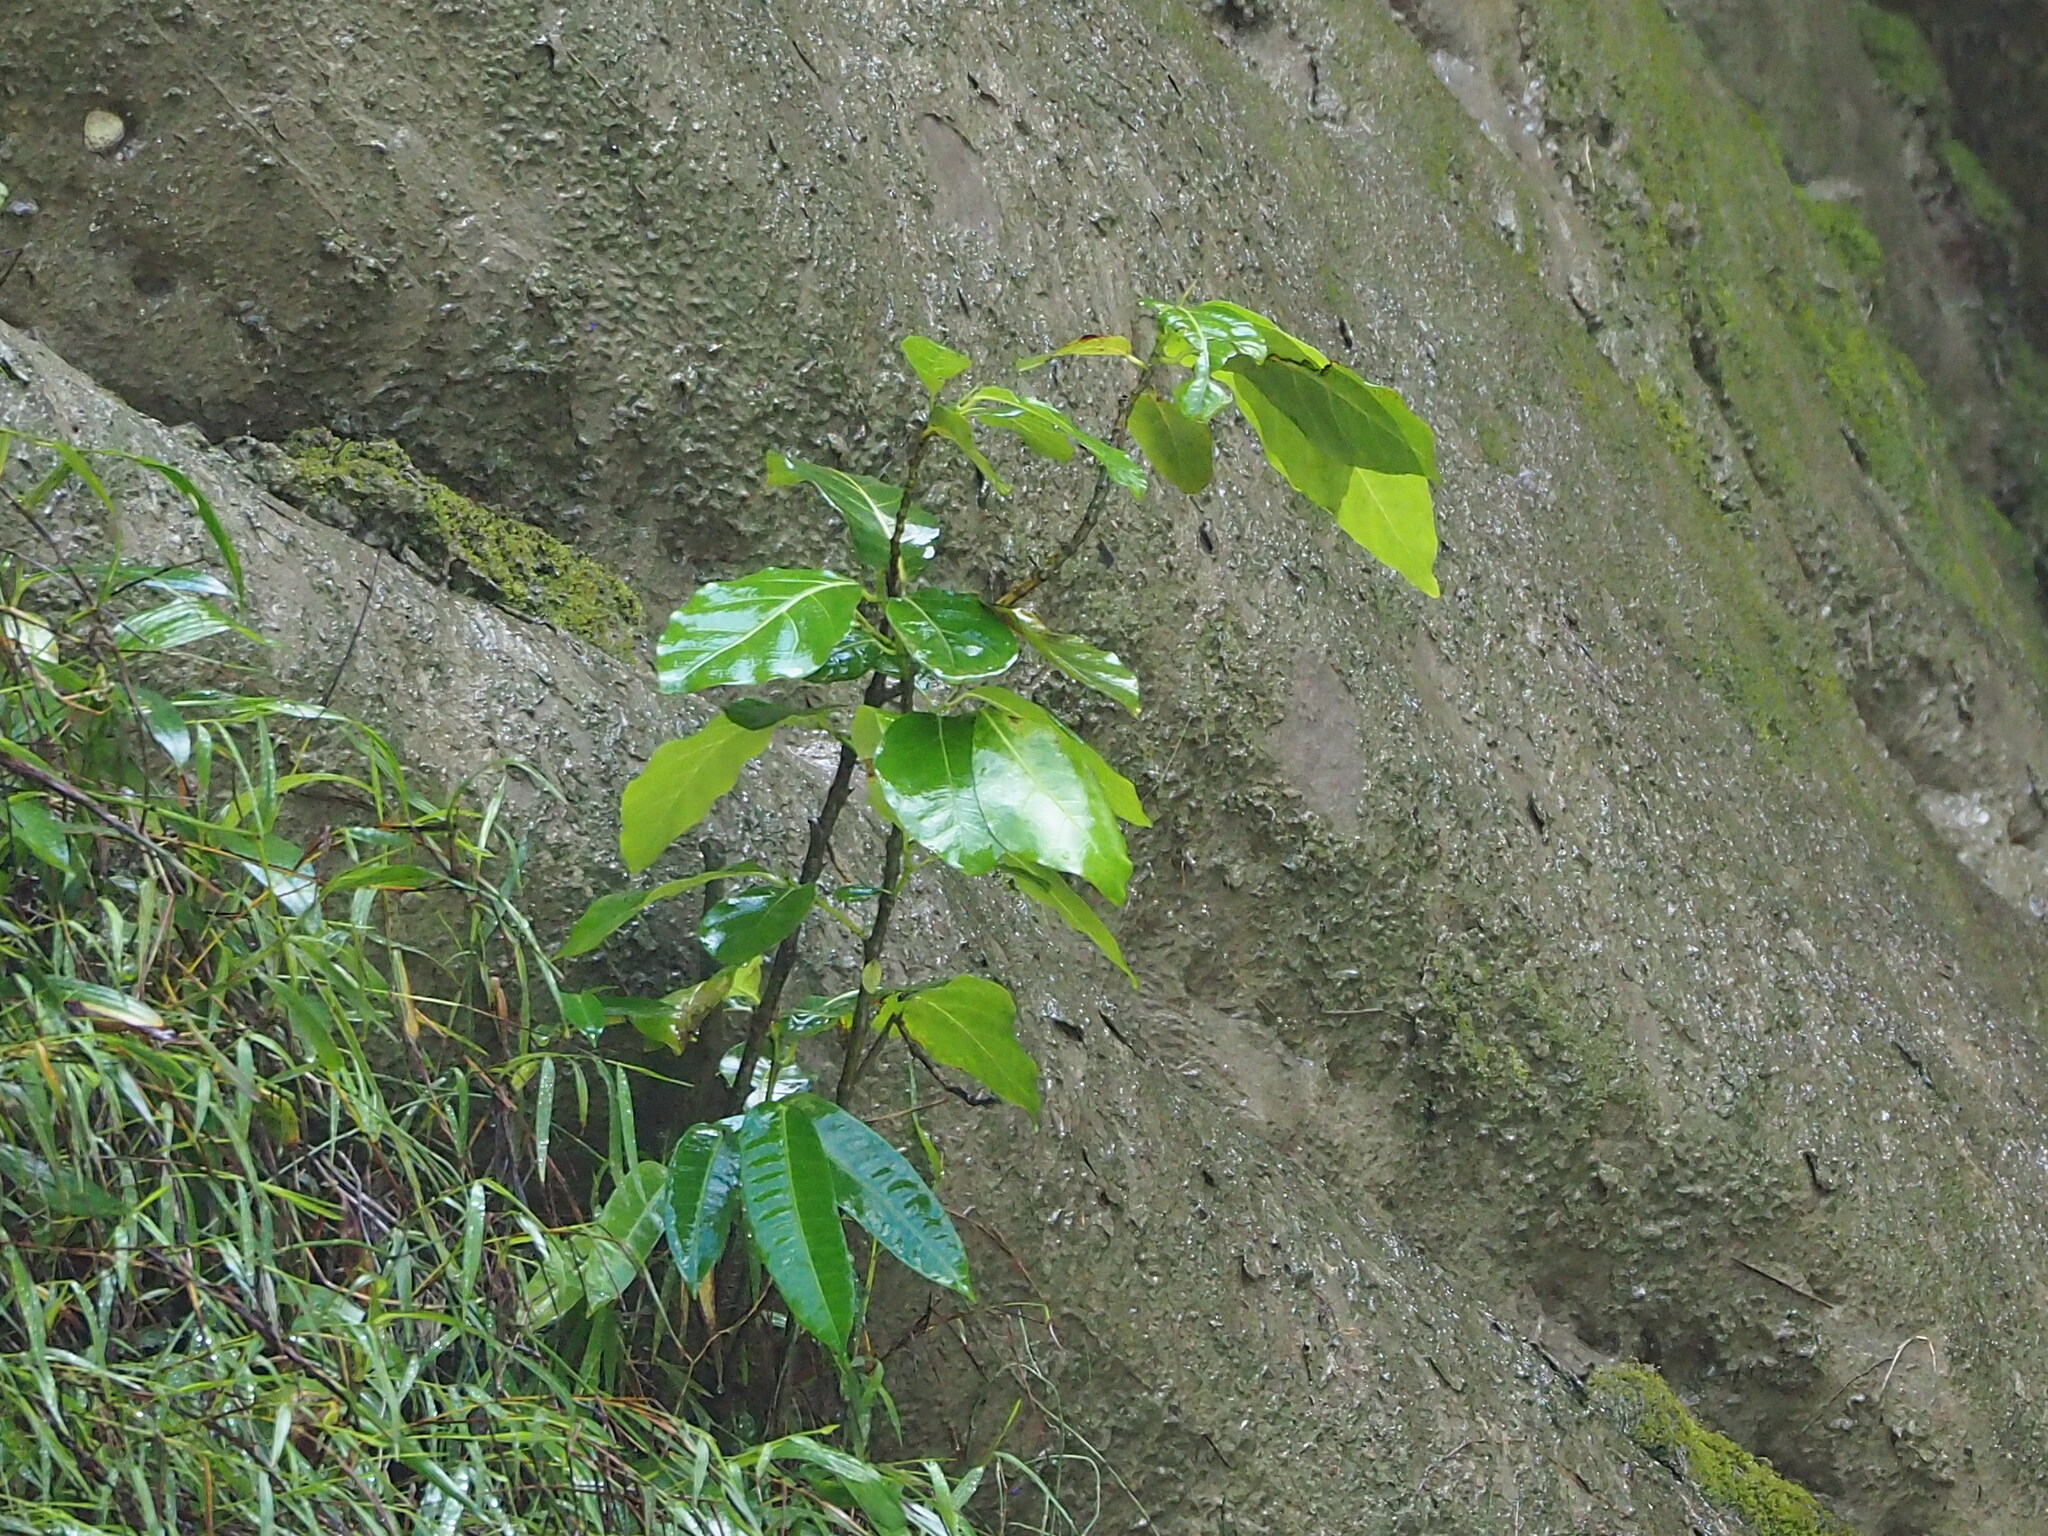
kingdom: Plantae
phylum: Tracheophyta
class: Magnoliopsida
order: Rosales
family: Moraceae
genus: Ficus
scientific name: Ficus septica
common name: Septic fig
